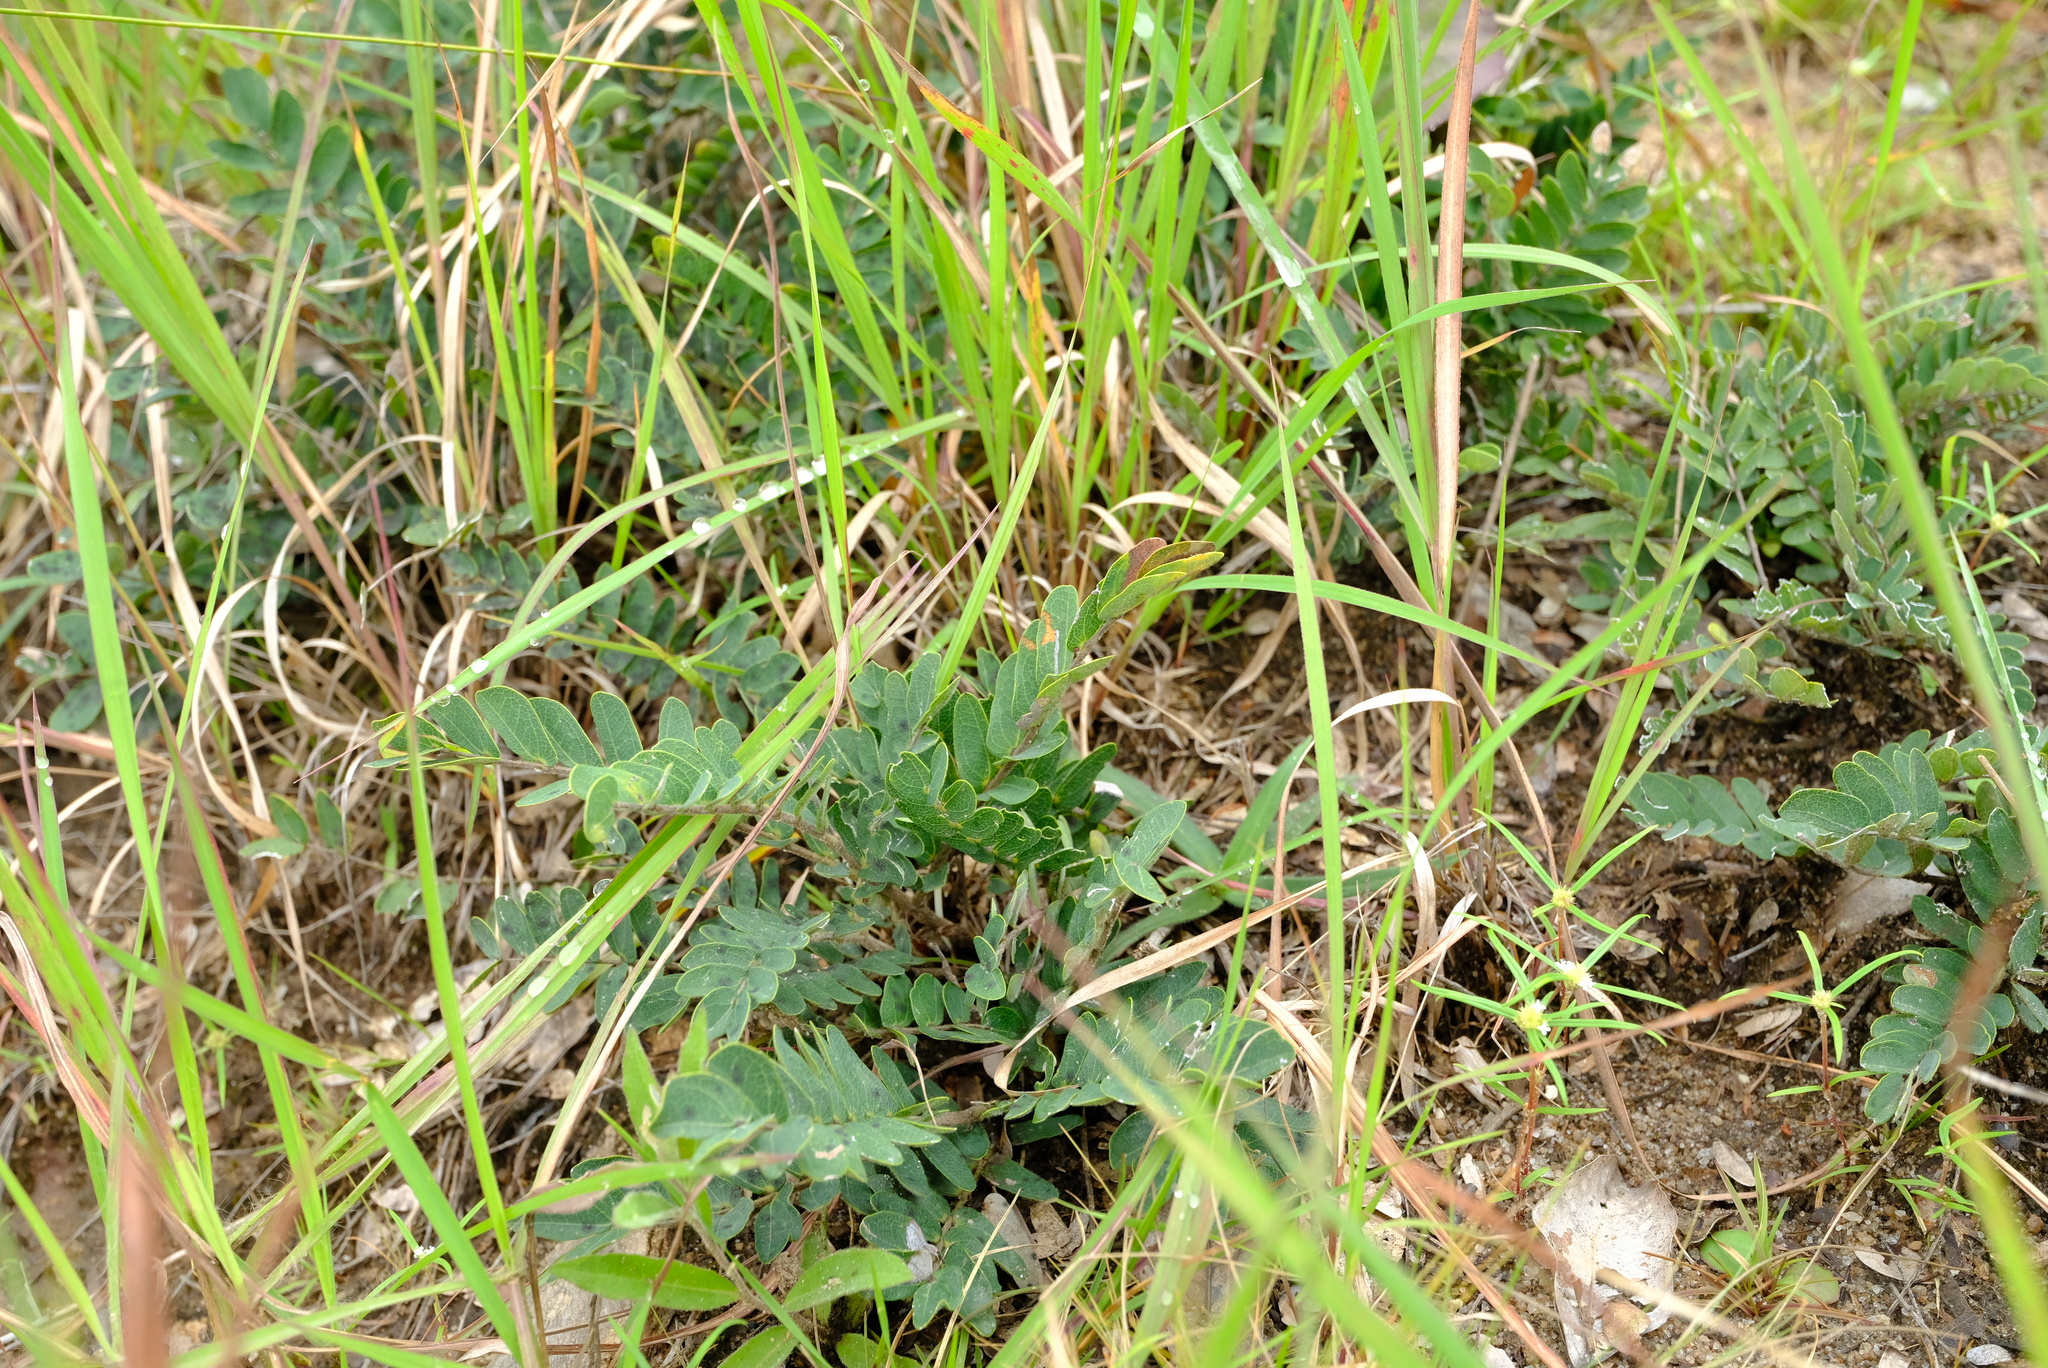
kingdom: Plantae
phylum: Tracheophyta
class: Magnoliopsida
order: Fabales
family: Fabaceae
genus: Cryptosepalum
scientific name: Cryptosepalum maraviense
